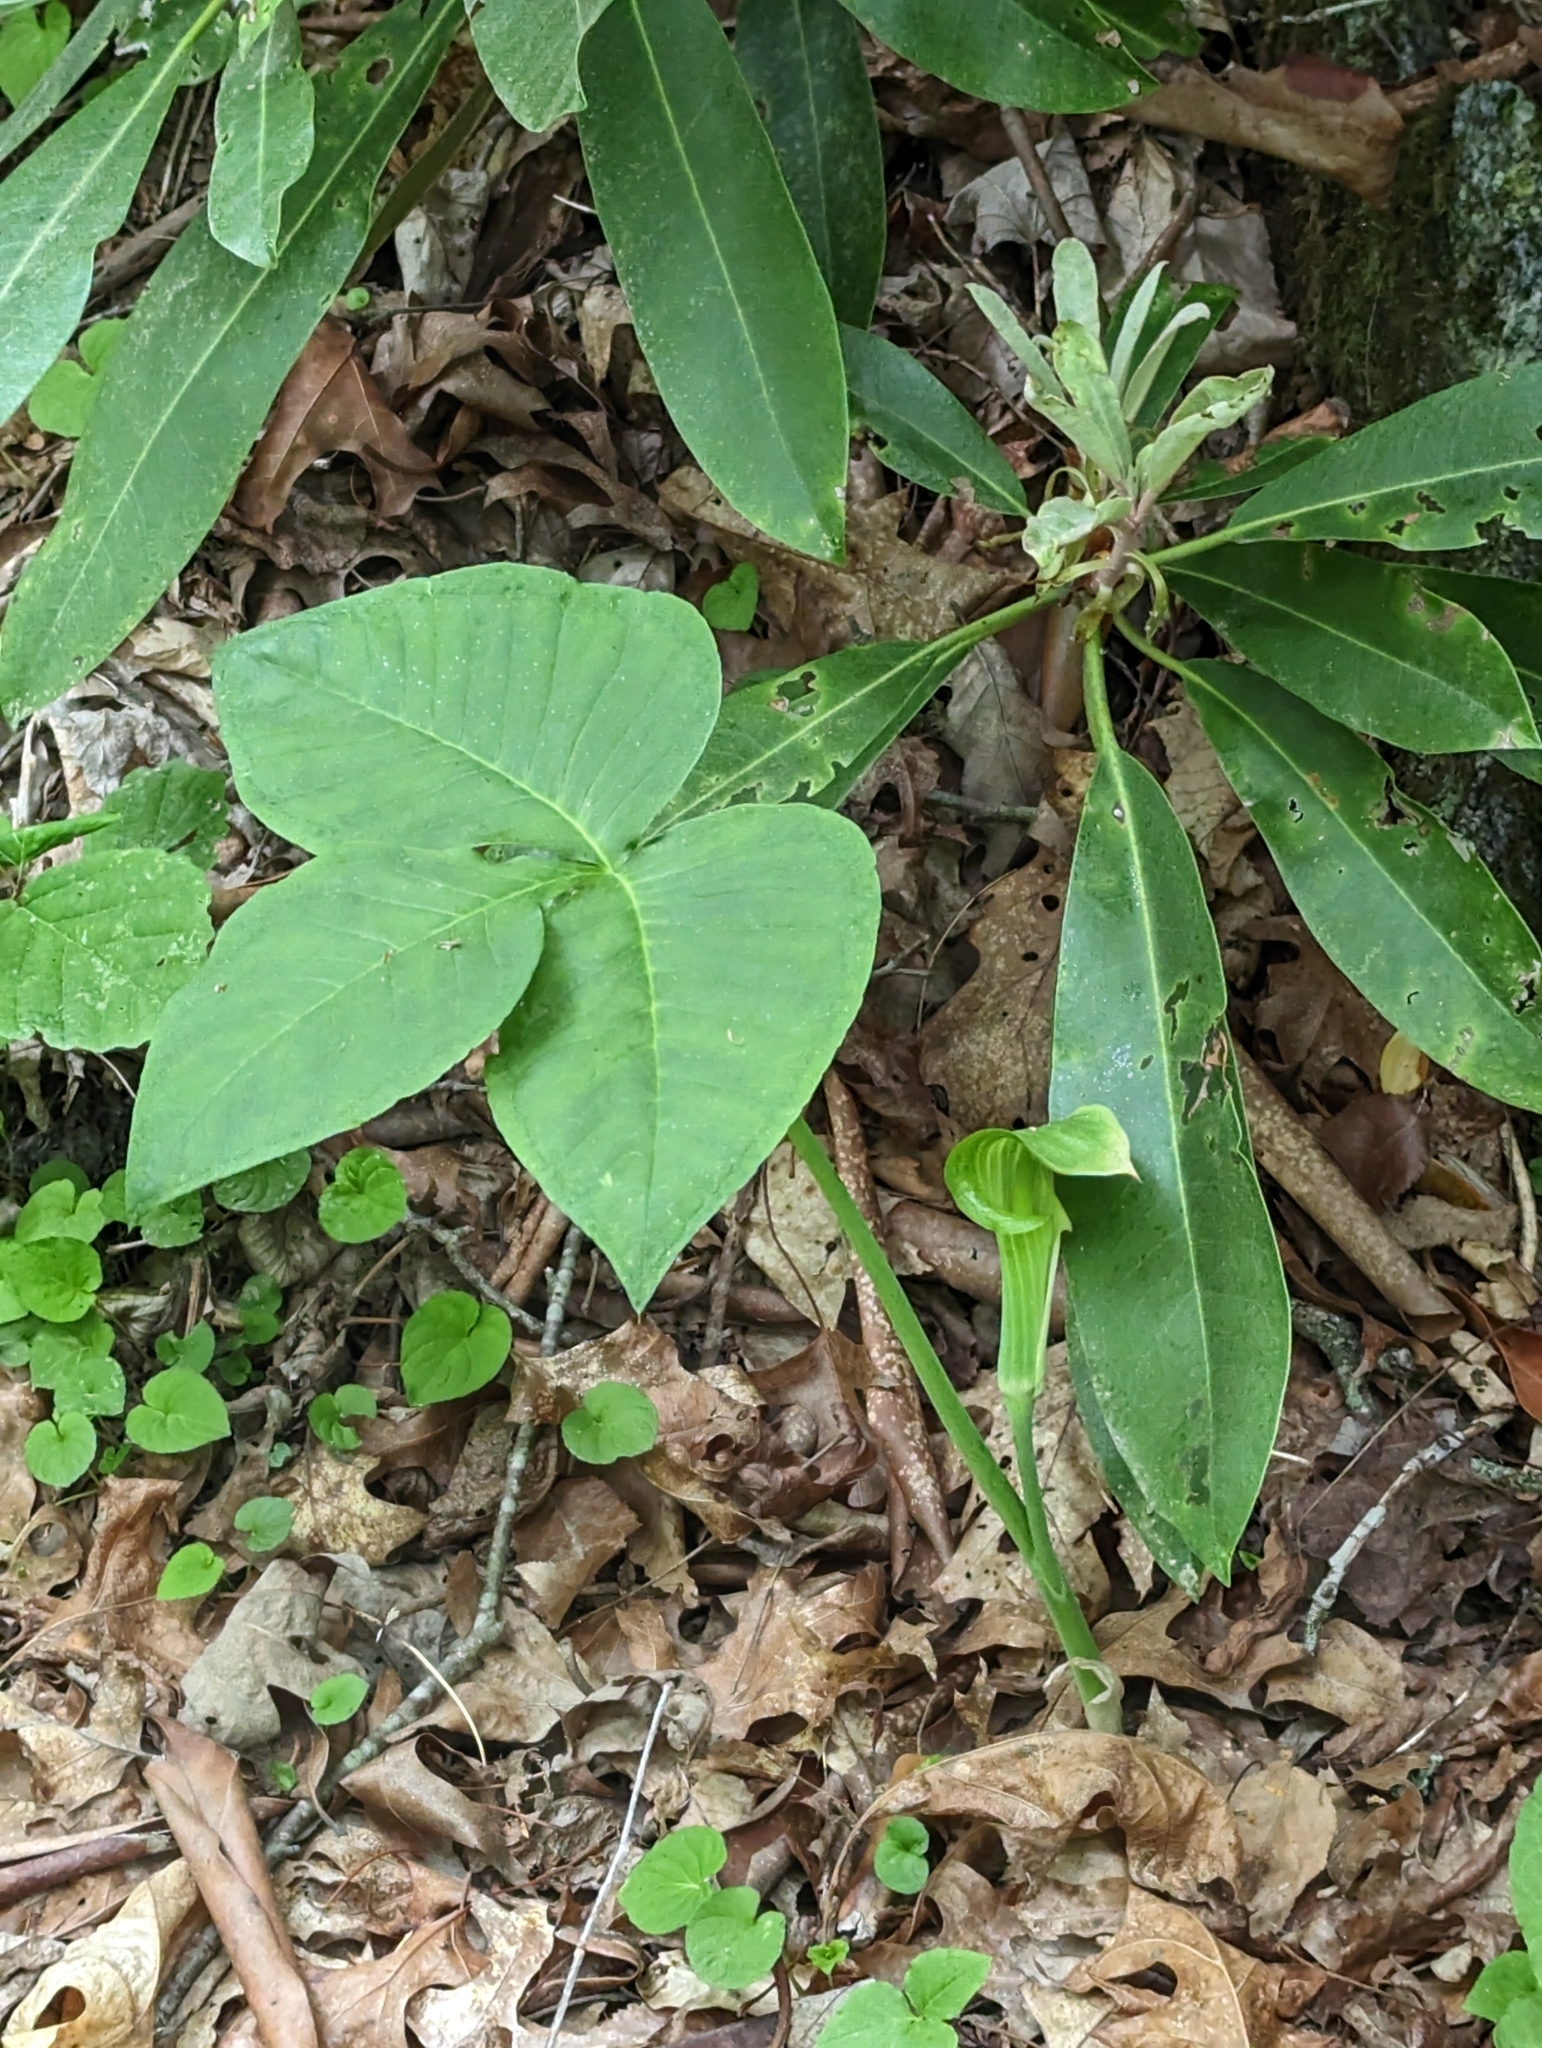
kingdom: Plantae
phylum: Tracheophyta
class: Liliopsida
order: Alismatales
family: Araceae
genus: Arisaema
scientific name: Arisaema triphyllum
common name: Jack-in-the-pulpit
